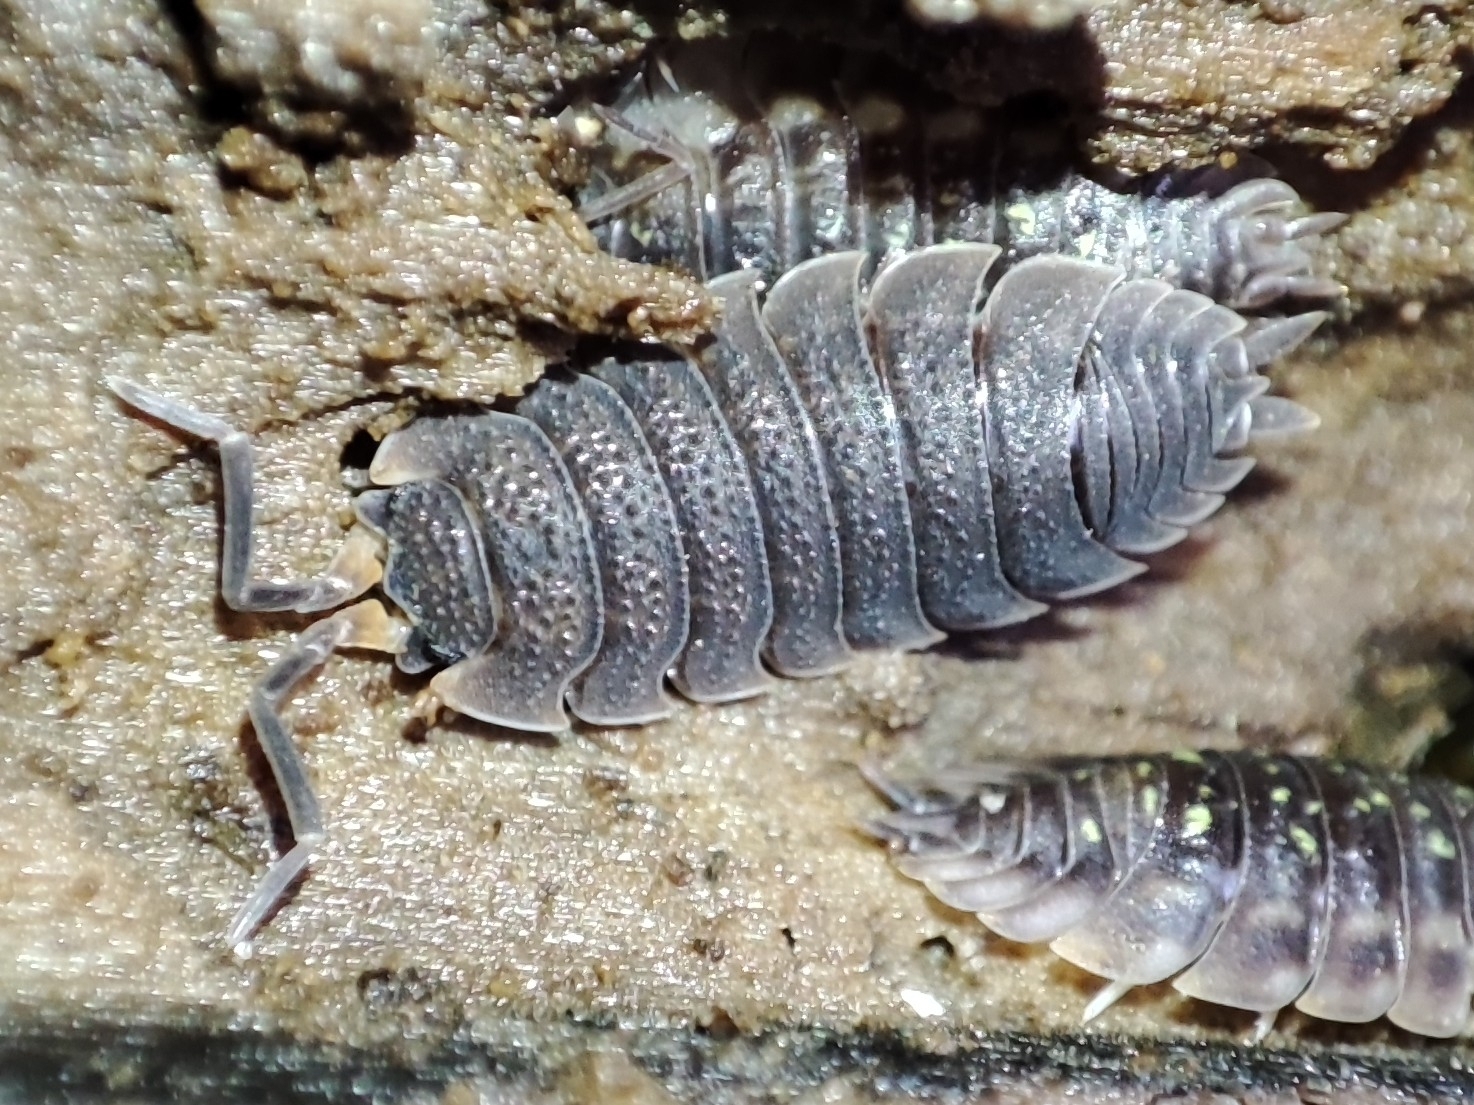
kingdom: Animalia
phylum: Arthropoda
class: Malacostraca
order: Isopoda
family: Porcellionidae
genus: Porcellio
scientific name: Porcellio scaber
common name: Common rough woodlouse
